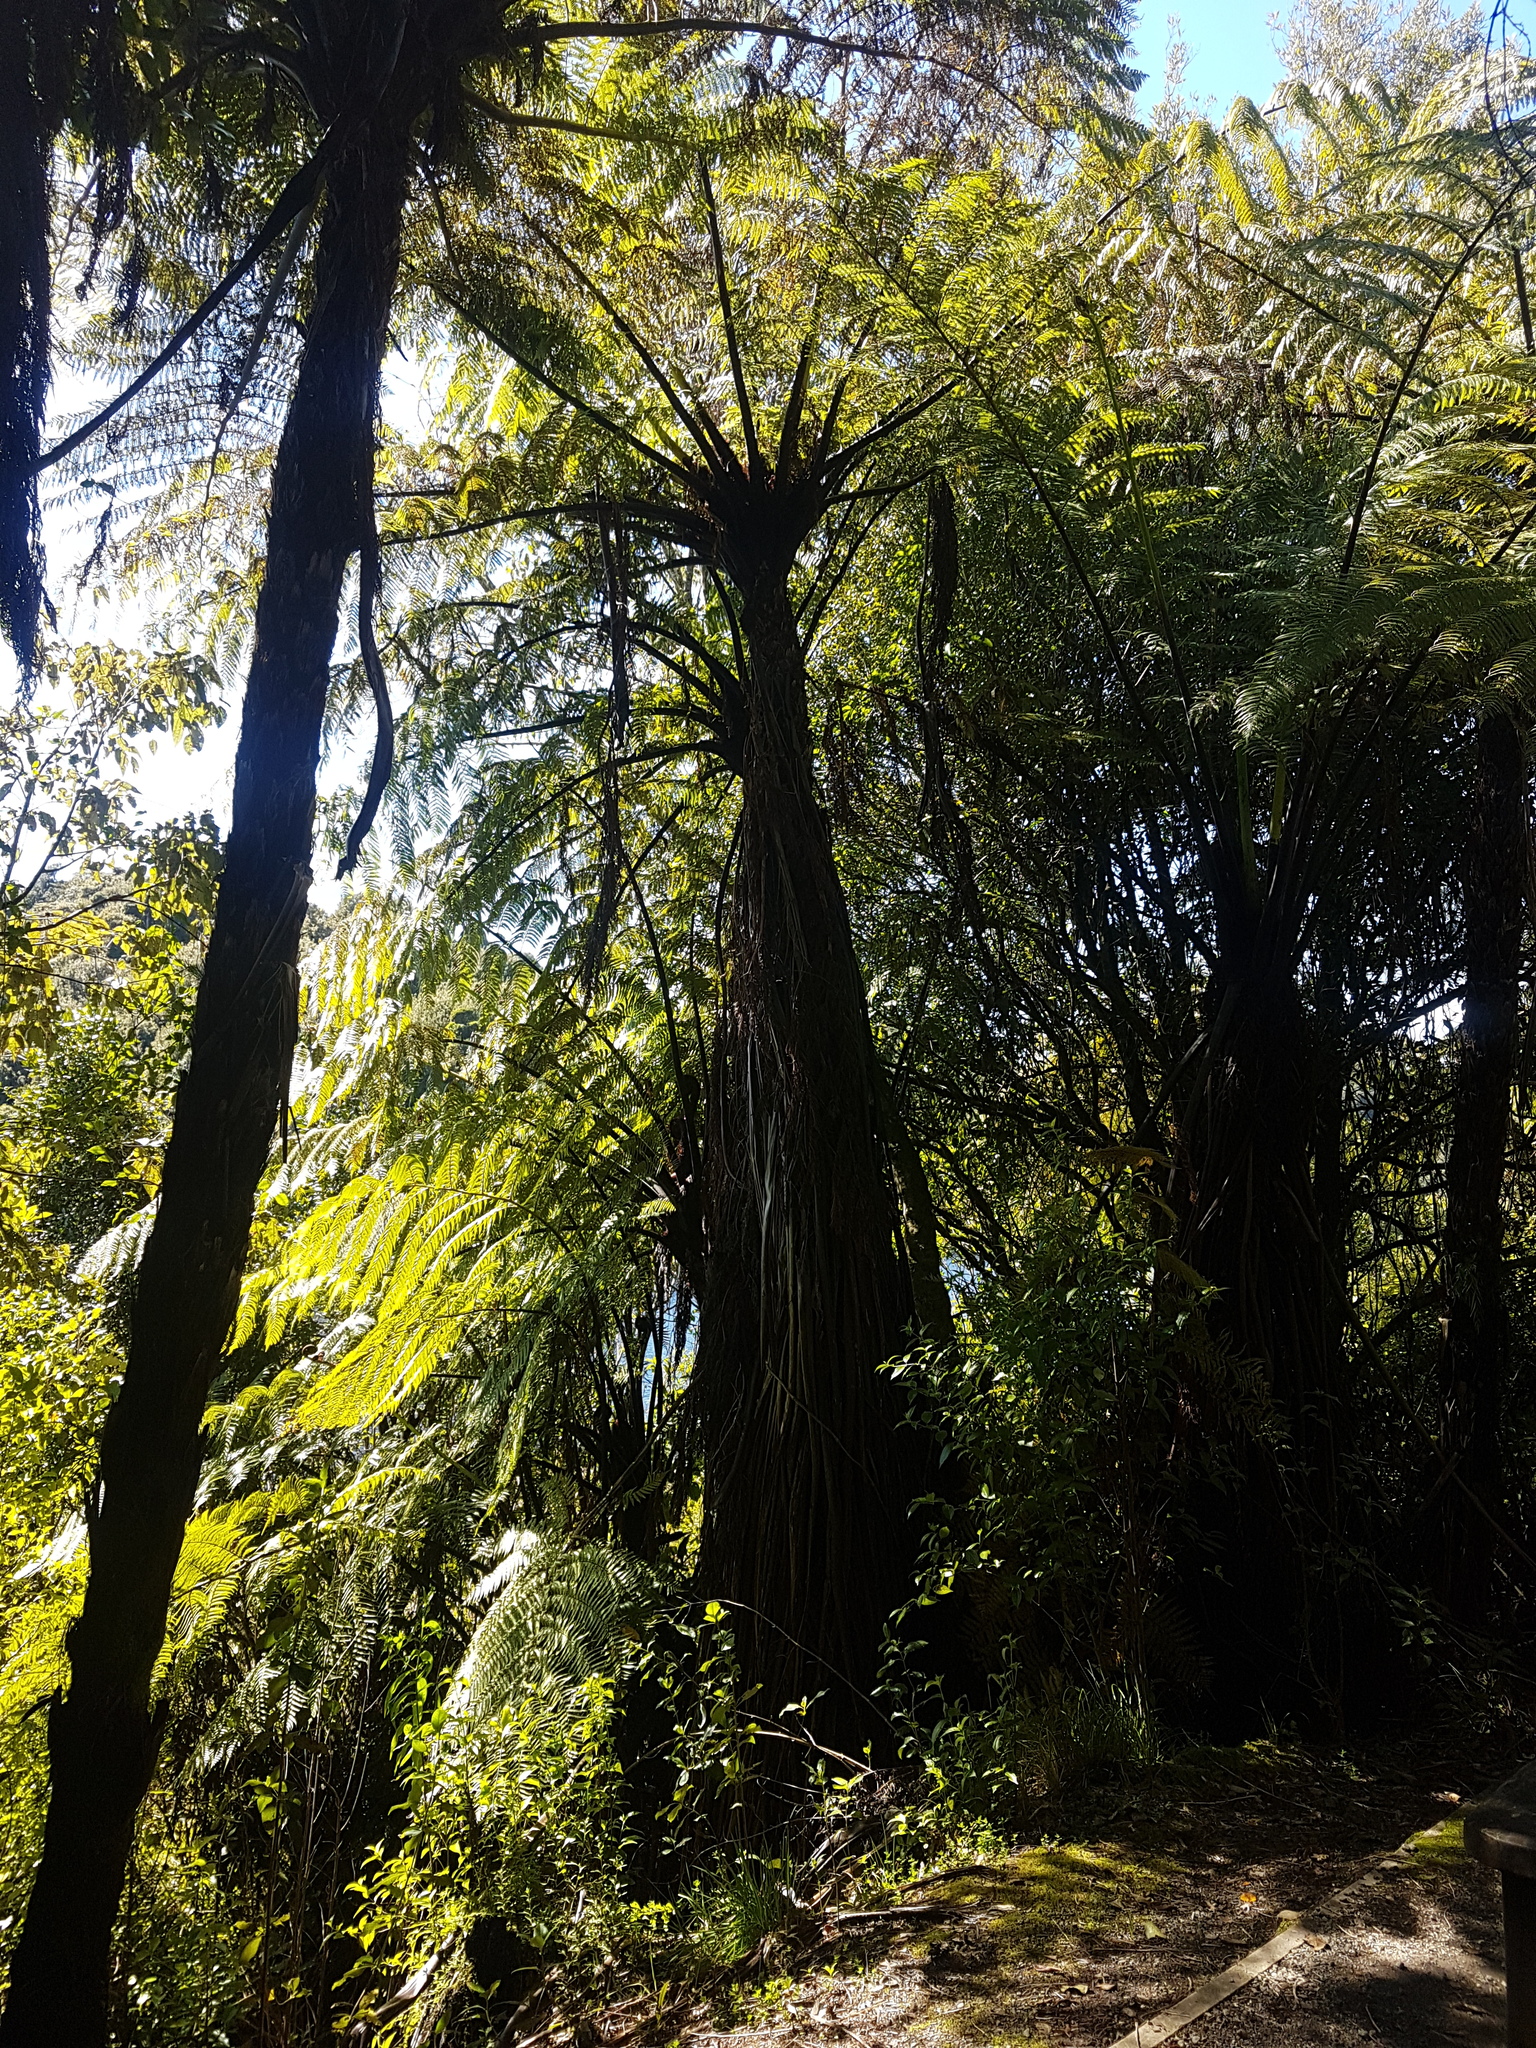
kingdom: Plantae
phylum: Tracheophyta
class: Polypodiopsida
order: Cyatheales
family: Cyatheaceae
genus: Sphaeropteris
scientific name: Sphaeropteris medullaris
